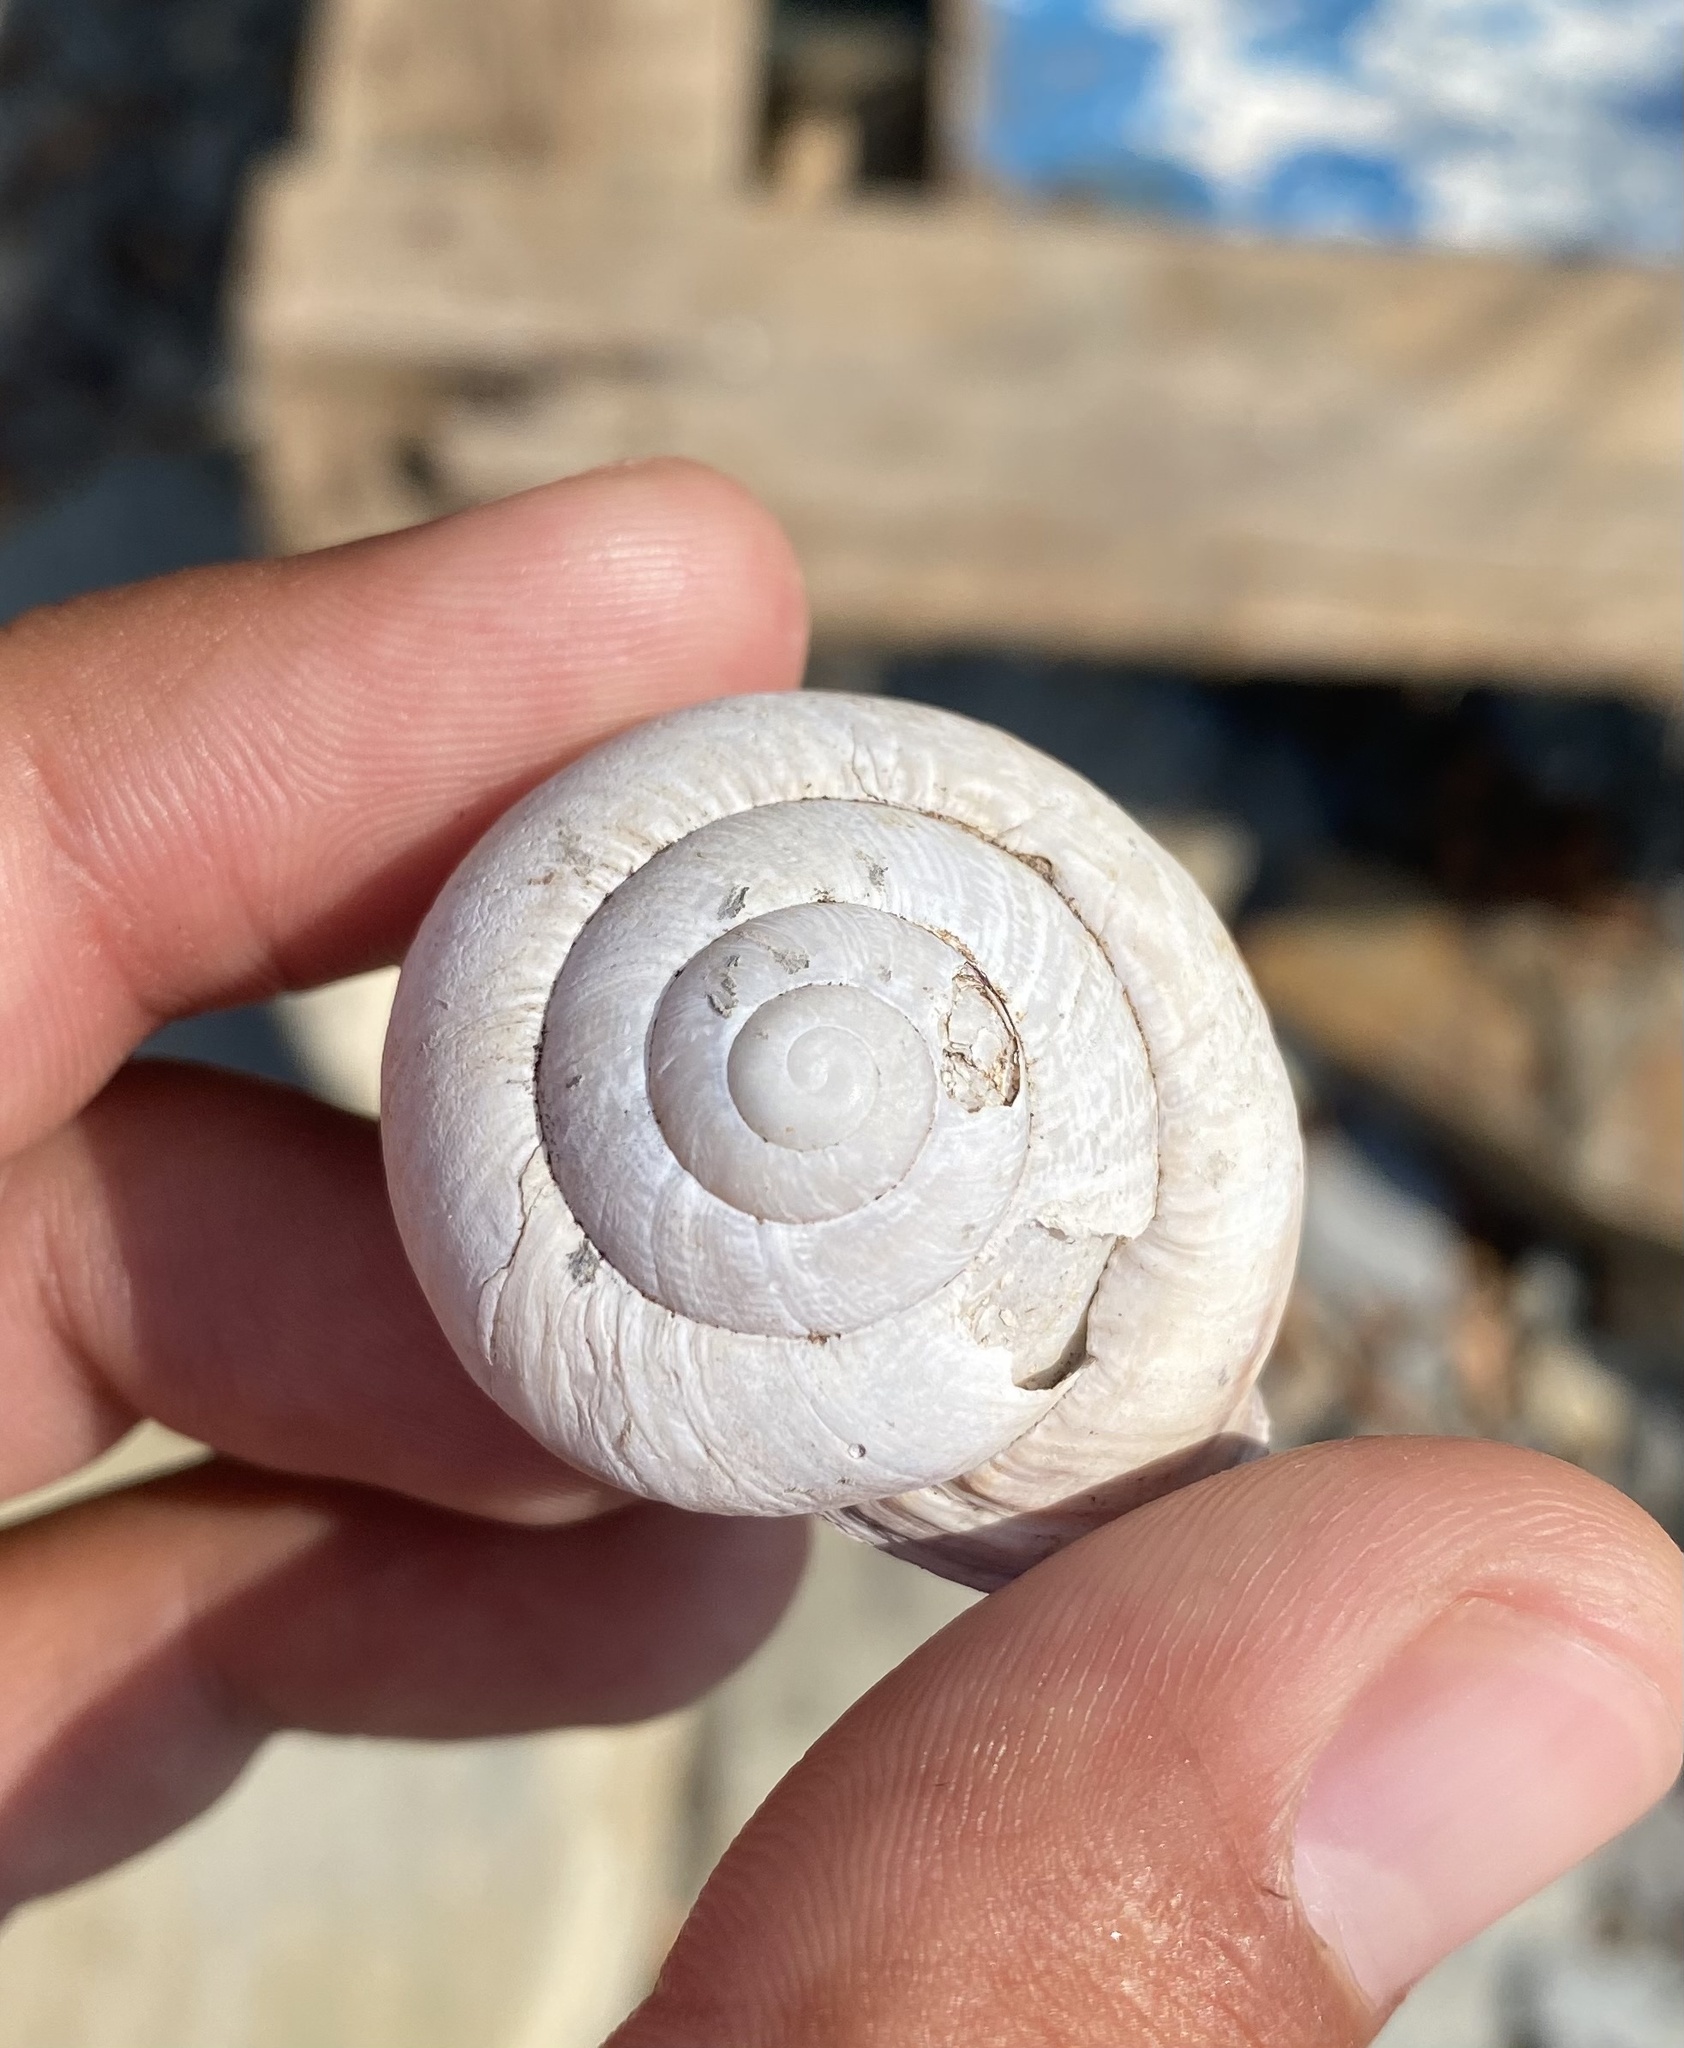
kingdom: Animalia
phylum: Mollusca
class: Gastropoda
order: Stylommatophora
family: Helicidae
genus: Caucasotachea
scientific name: Caucasotachea atrolabiata
